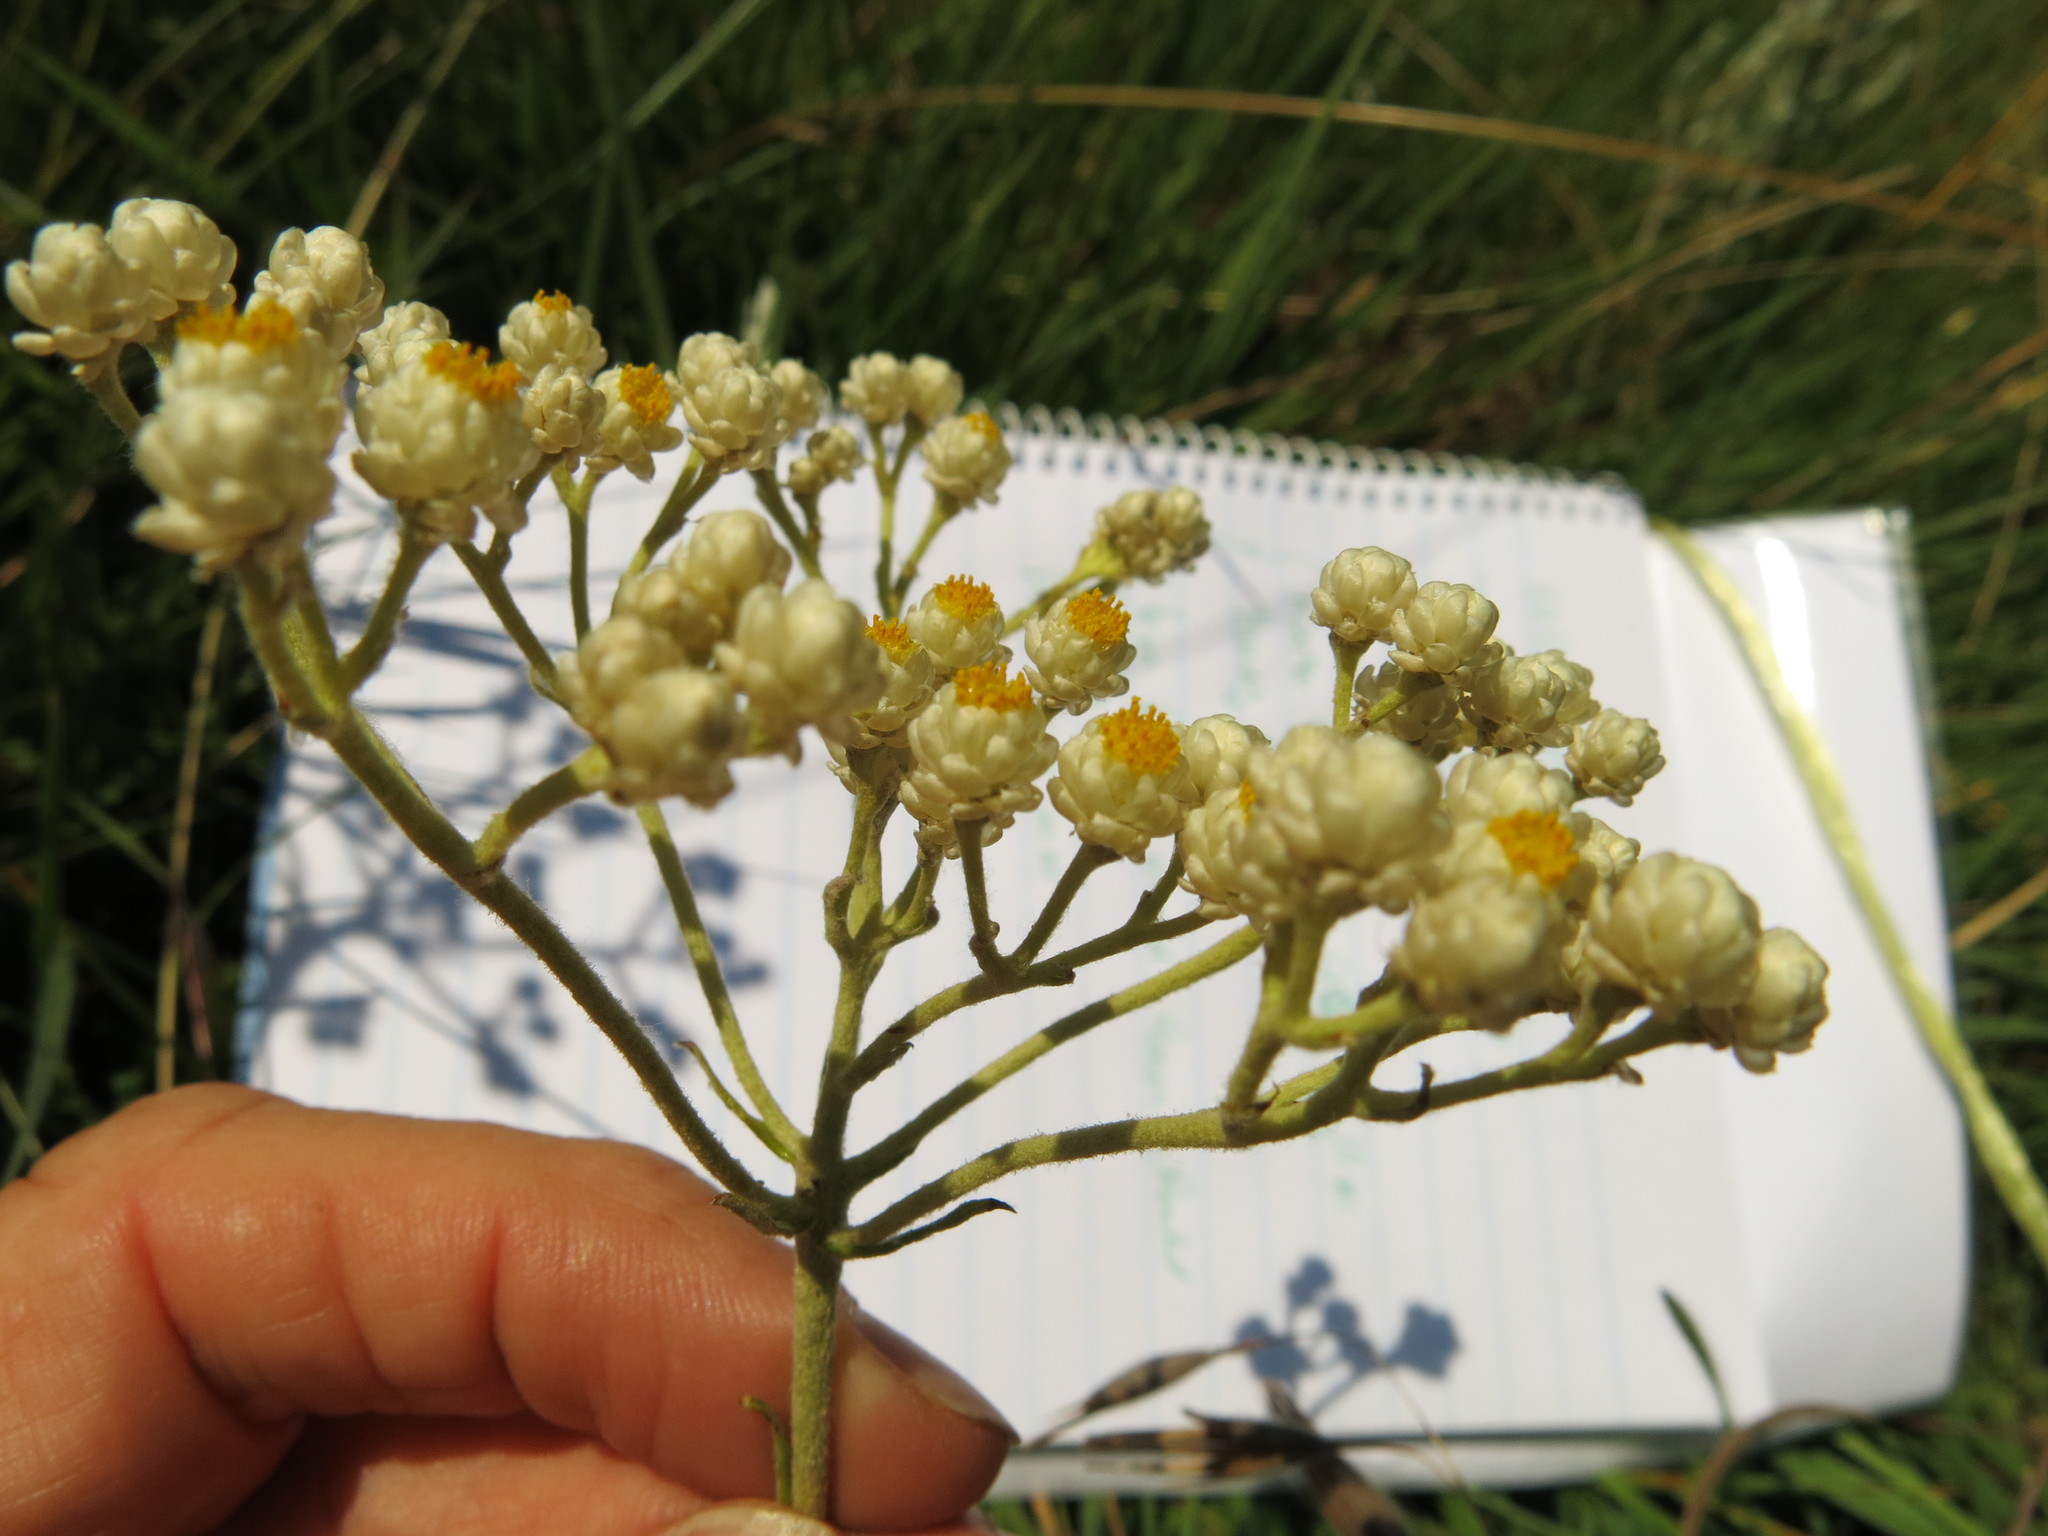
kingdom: Plantae
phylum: Tracheophyta
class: Magnoliopsida
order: Asterales
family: Asteraceae
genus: Helichrysum
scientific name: Helichrysum nudifolium
